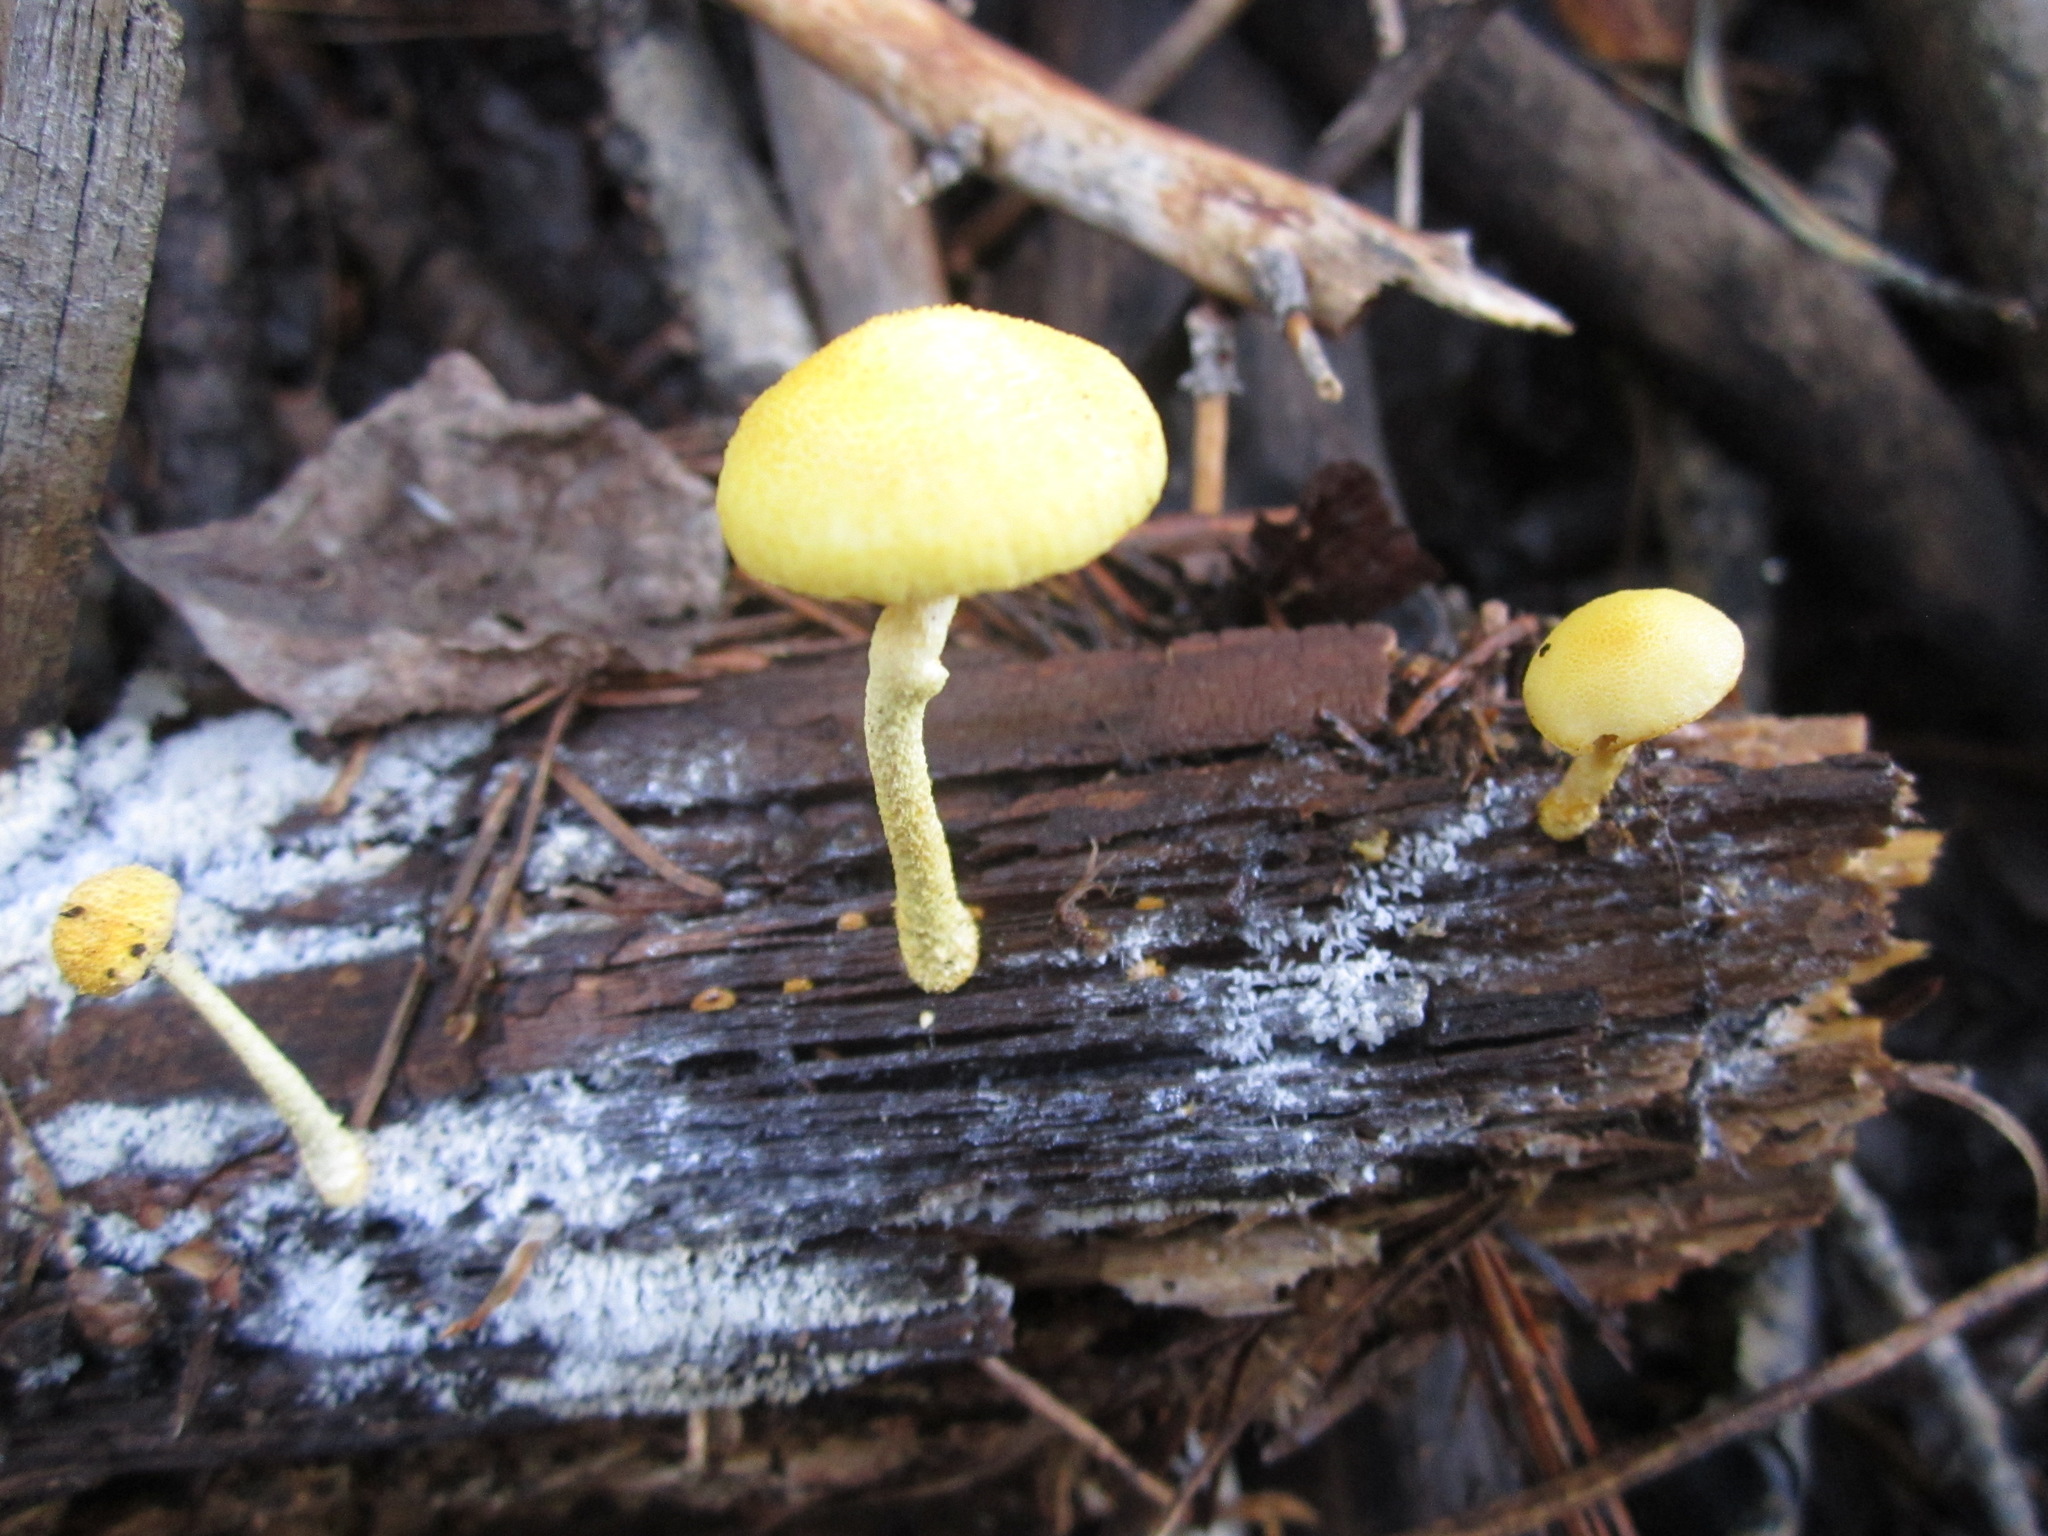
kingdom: Fungi
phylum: Basidiomycota
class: Agaricomycetes
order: Agaricales
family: Physalacriaceae
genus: Cyptotrama
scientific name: Cyptotrama chrysopepla
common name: Golden coincap
